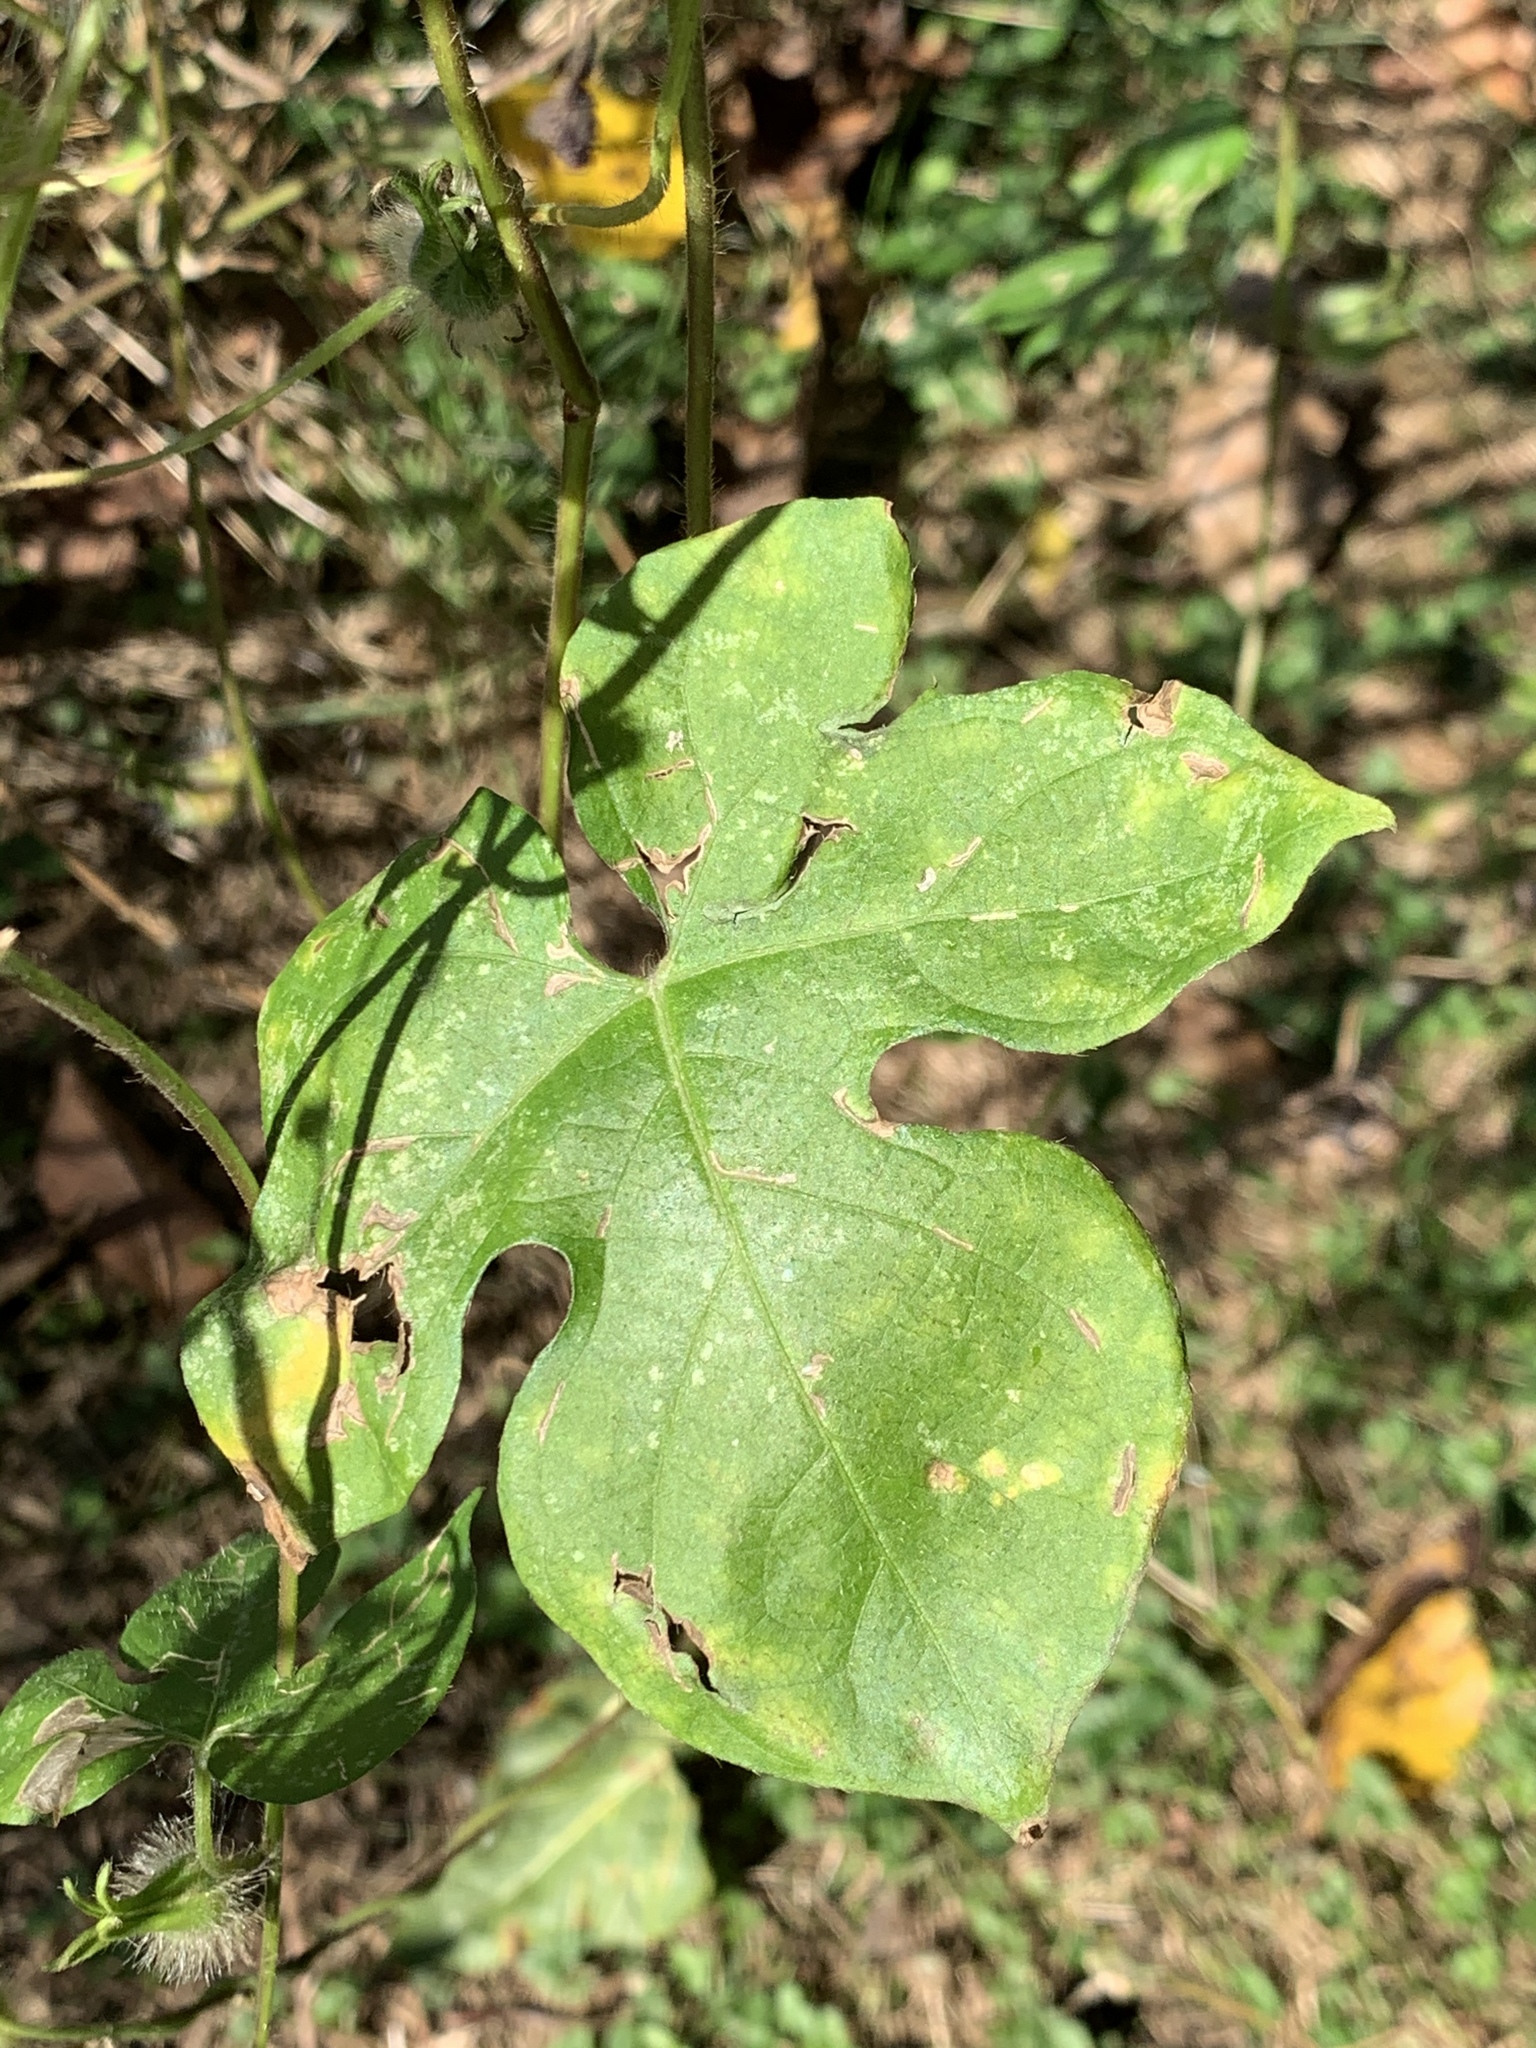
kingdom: Plantae
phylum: Tracheophyta
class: Magnoliopsida
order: Solanales
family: Convolvulaceae
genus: Ipomoea
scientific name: Ipomoea hederacea
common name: Ivy-leaved morning-glory
